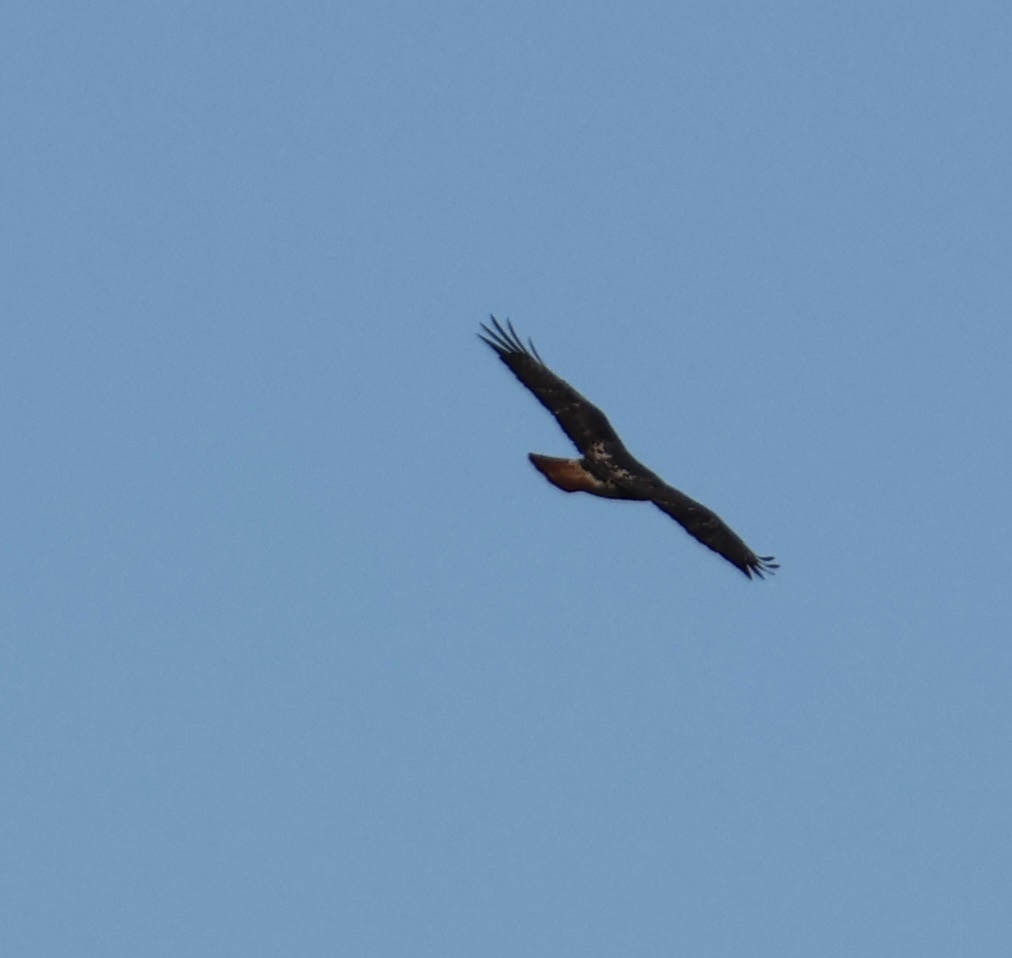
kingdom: Animalia
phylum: Chordata
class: Aves
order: Accipitriformes
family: Accipitridae
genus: Buteo
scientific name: Buteo jamaicensis
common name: Red-tailed hawk
